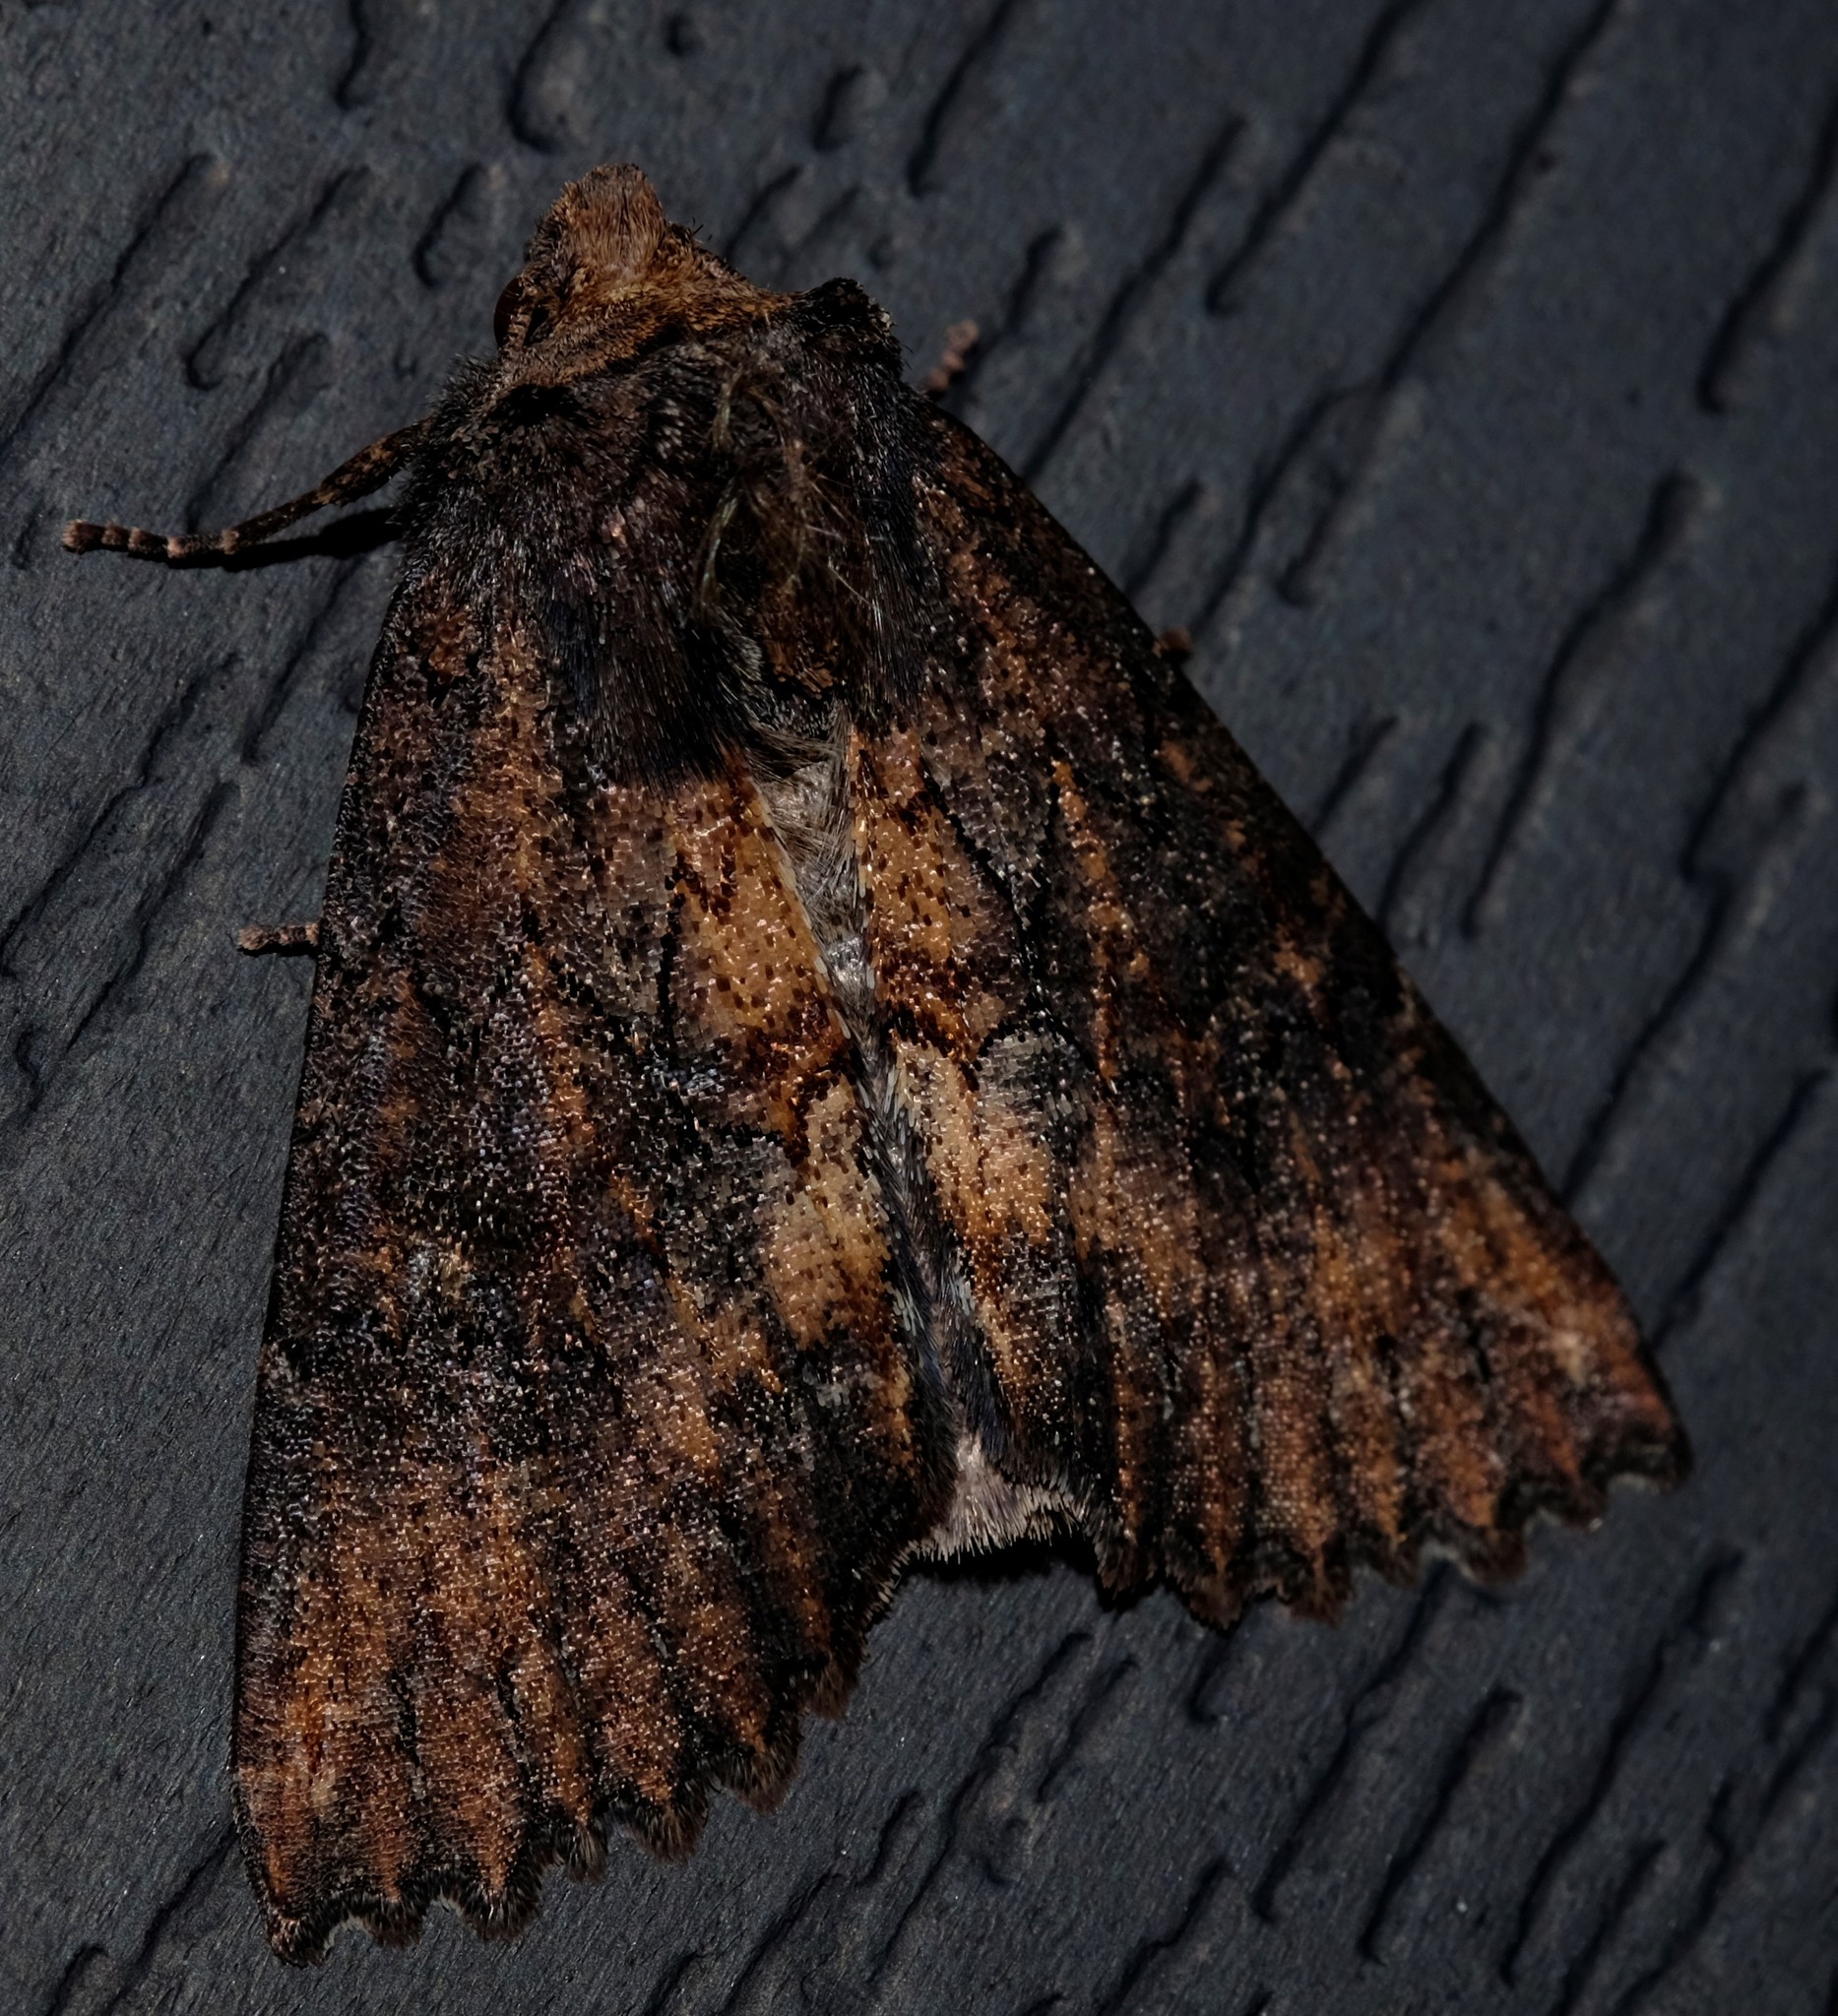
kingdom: Animalia
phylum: Arthropoda
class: Insecta
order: Lepidoptera
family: Geometridae
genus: Nisista
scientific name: Nisista serrata
